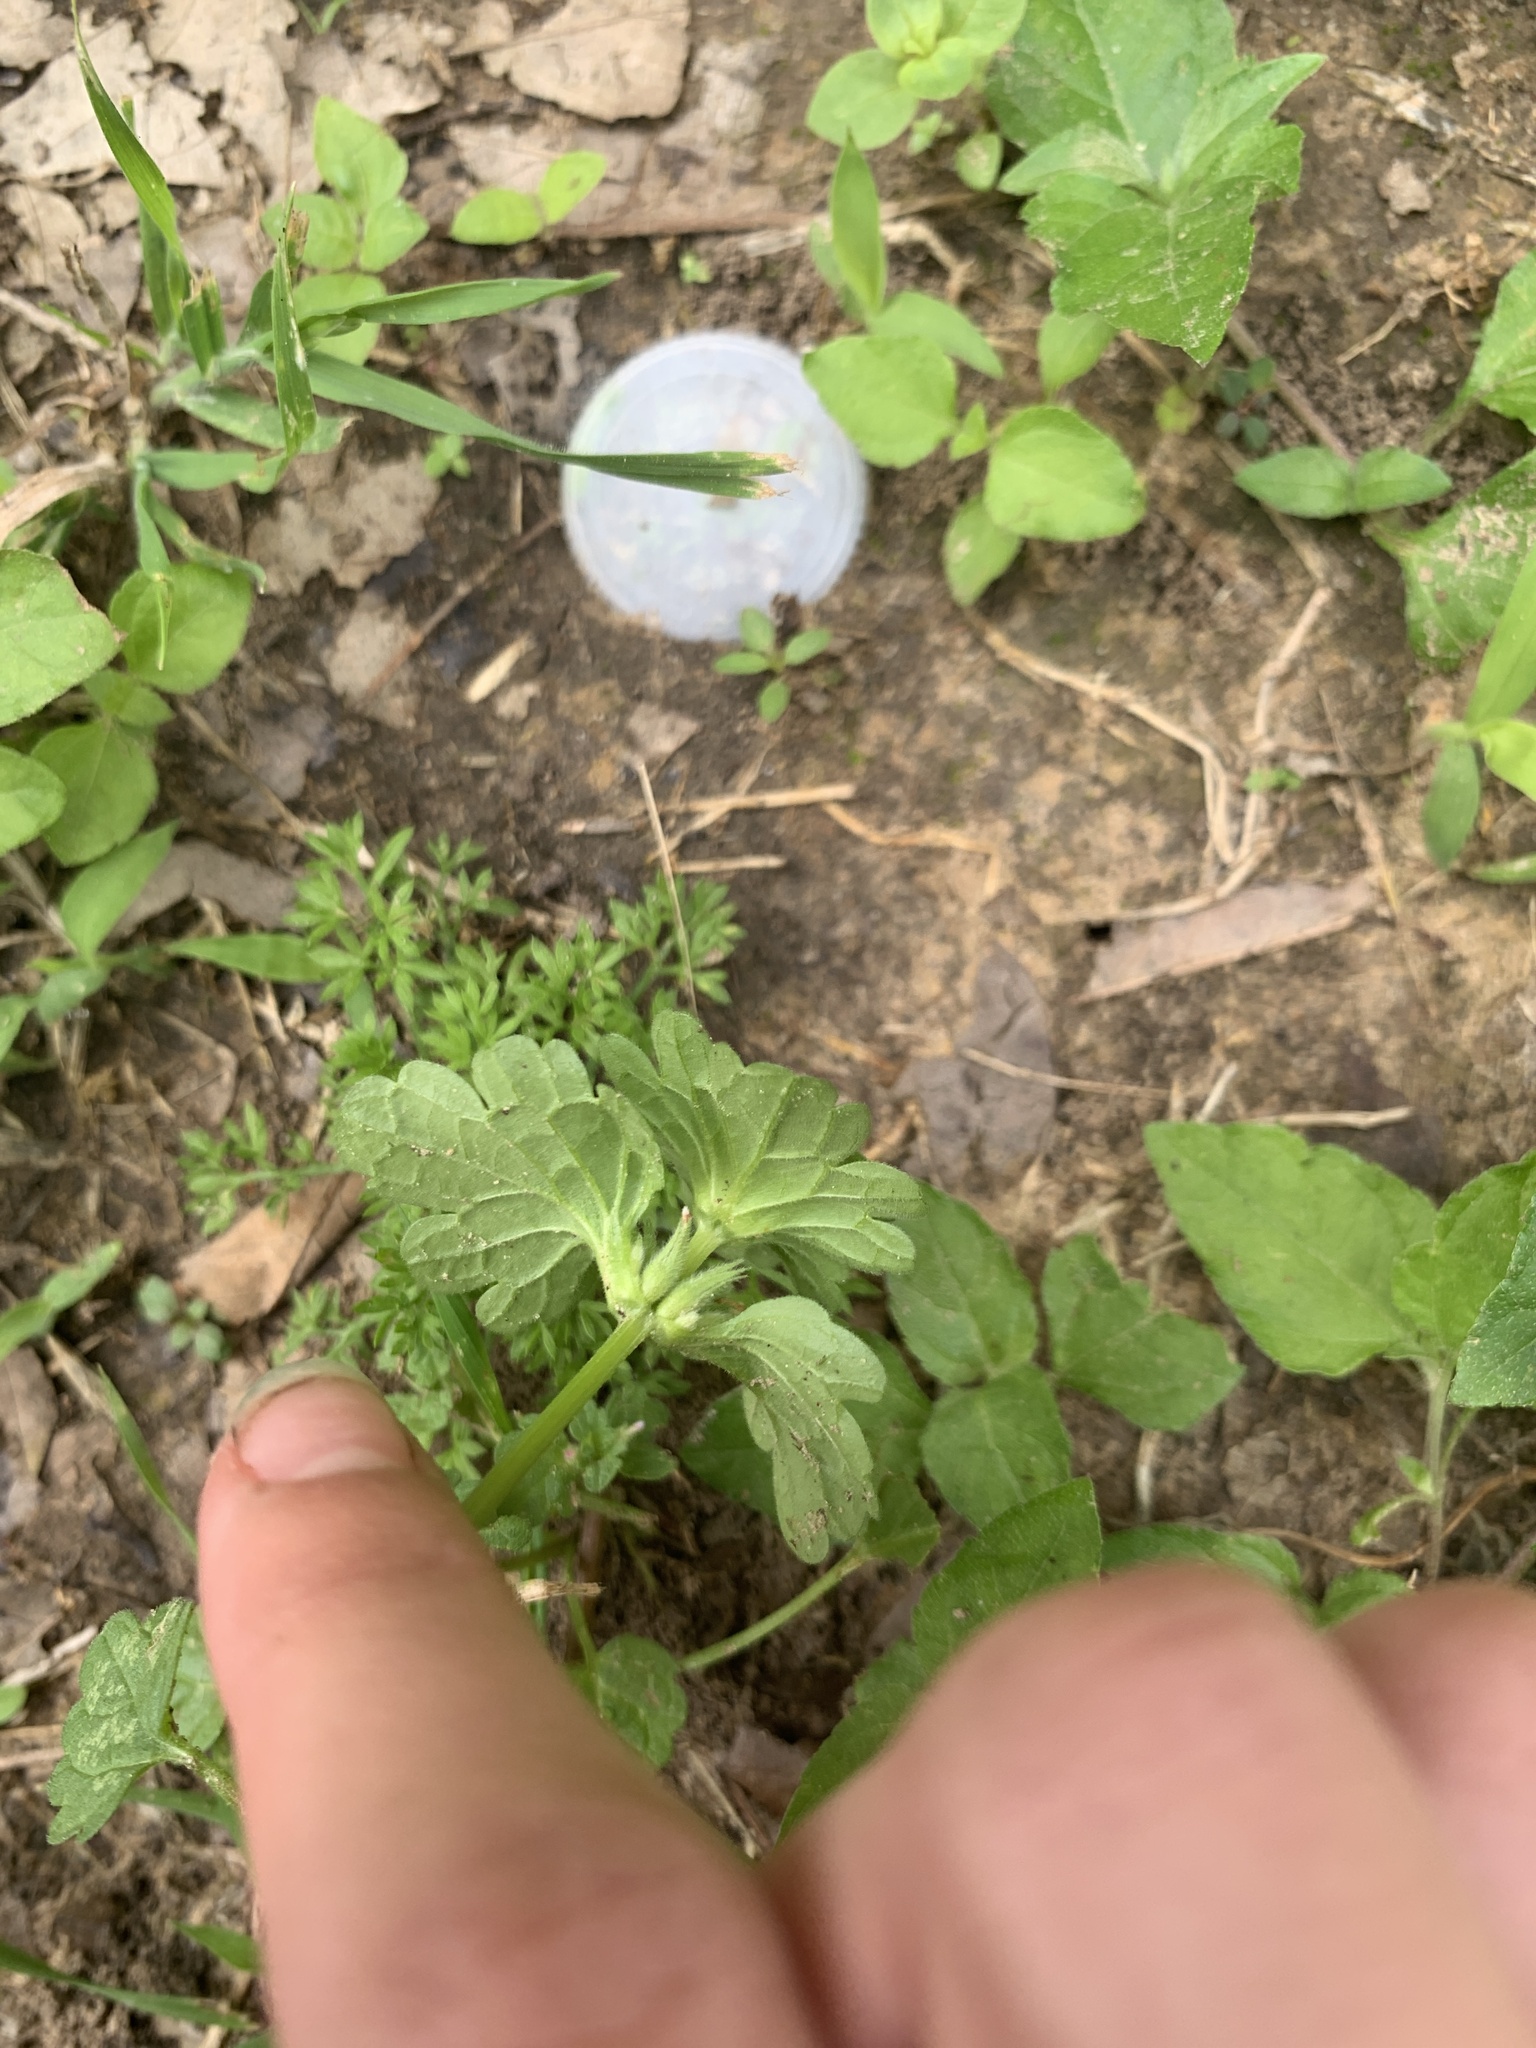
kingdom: Plantae
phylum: Tracheophyta
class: Magnoliopsida
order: Lamiales
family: Lamiaceae
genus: Lamium
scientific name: Lamium amplexicaule
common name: Henbit dead-nettle
